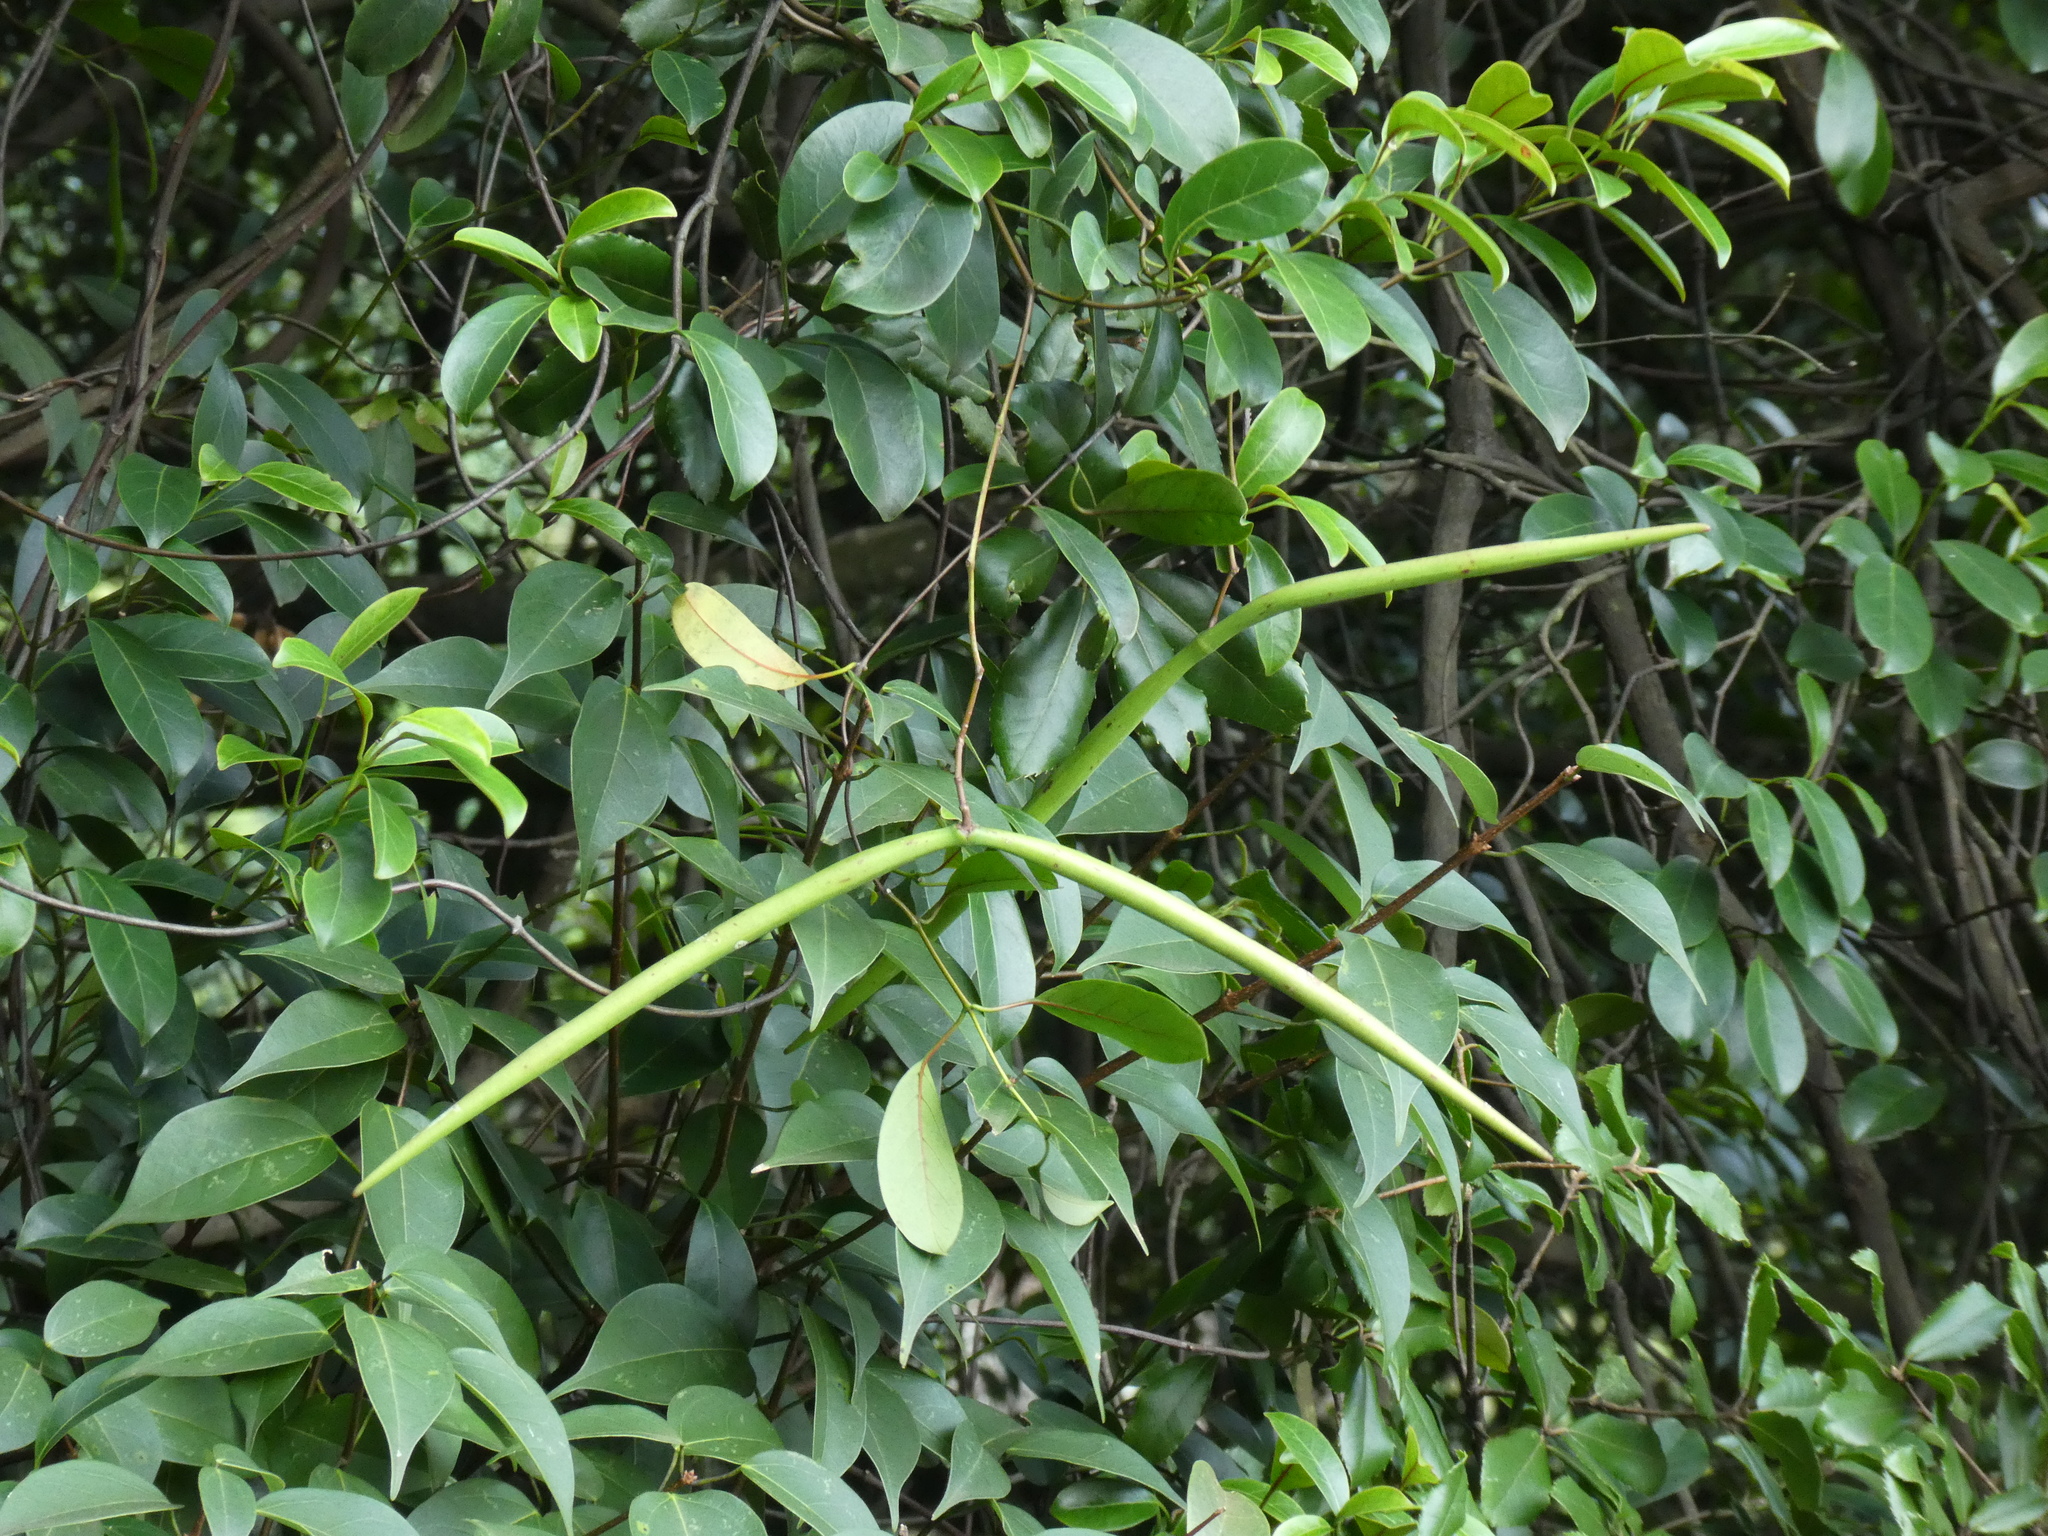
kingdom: Plantae
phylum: Tracheophyta
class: Magnoliopsida
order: Gentianales
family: Apocynaceae
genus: Urceola
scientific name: Urceola rosea
